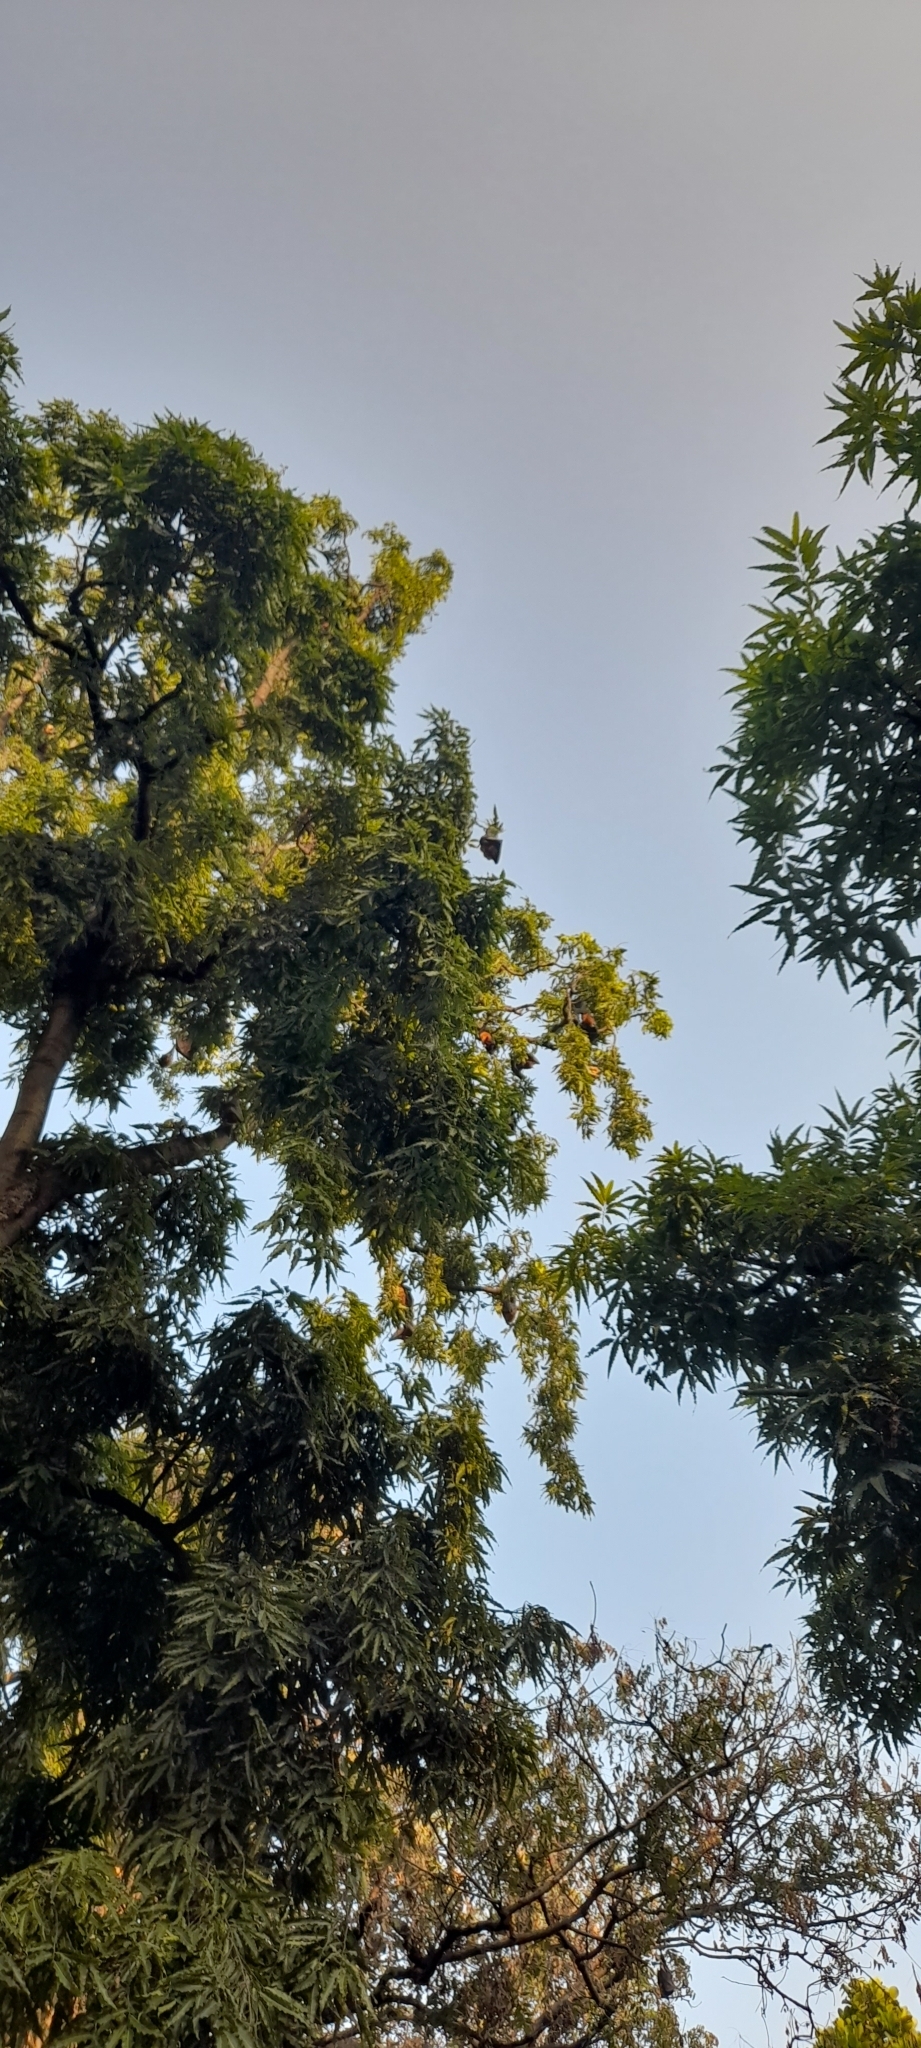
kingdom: Animalia
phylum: Chordata
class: Mammalia
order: Chiroptera
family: Pteropodidae
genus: Pteropus
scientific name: Pteropus vampyrus
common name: Large flying fox
